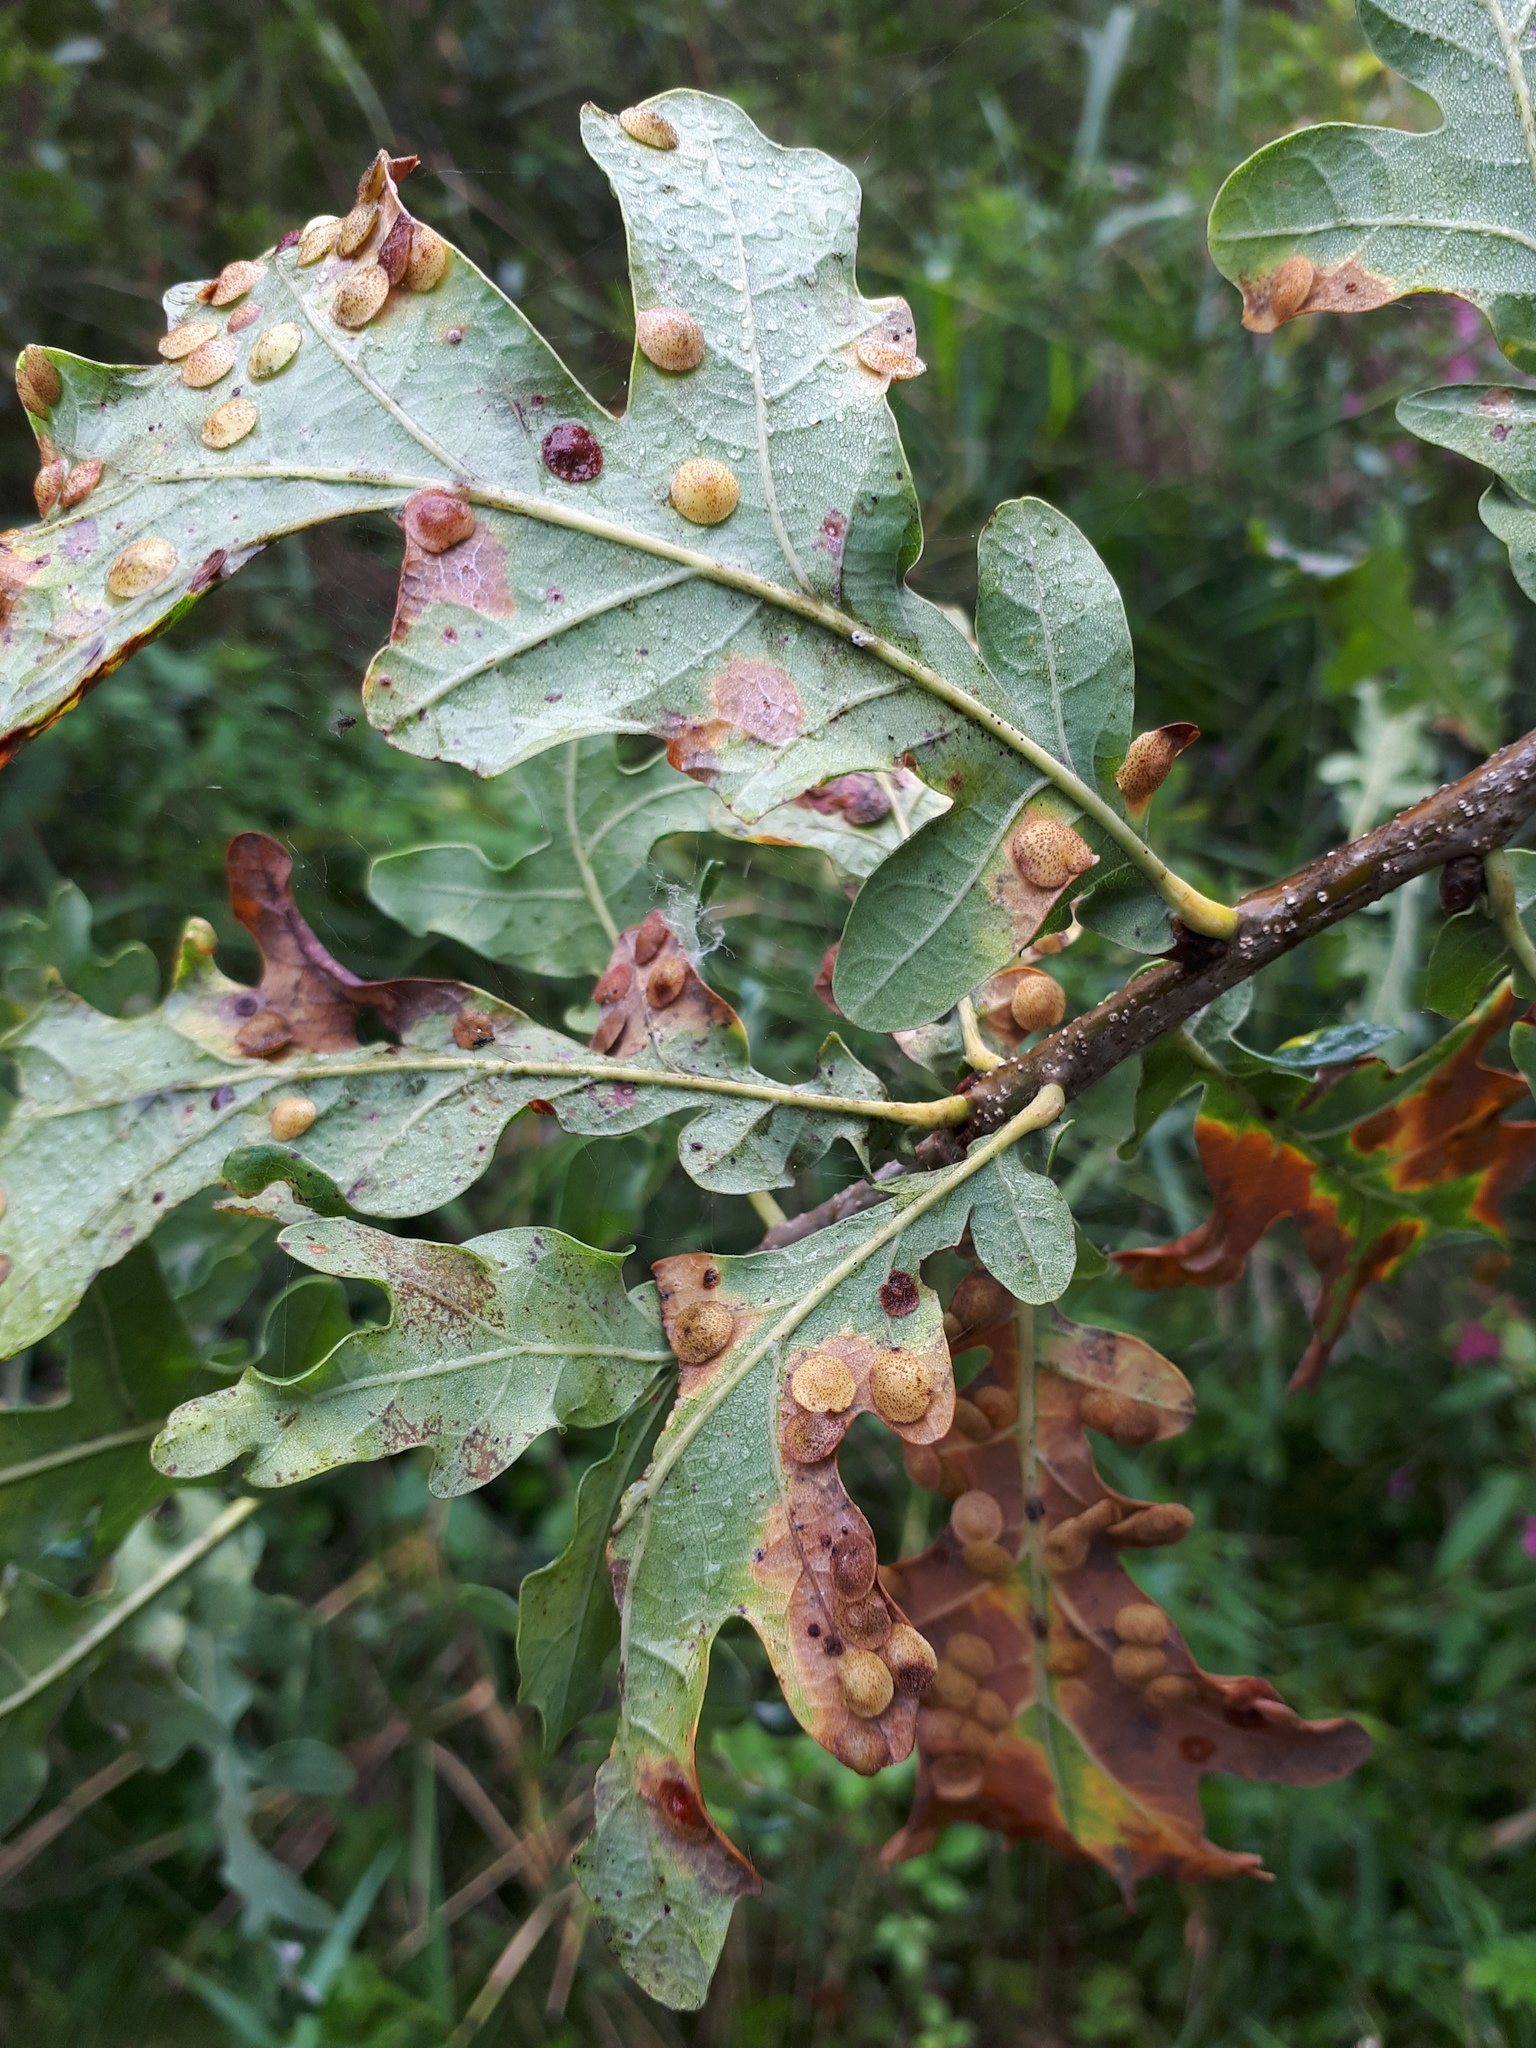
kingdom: Animalia
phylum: Arthropoda
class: Insecta
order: Hymenoptera
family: Cynipidae
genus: Neuroterus
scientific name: Neuroterus quercusbaccarum
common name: Common spangle gall
